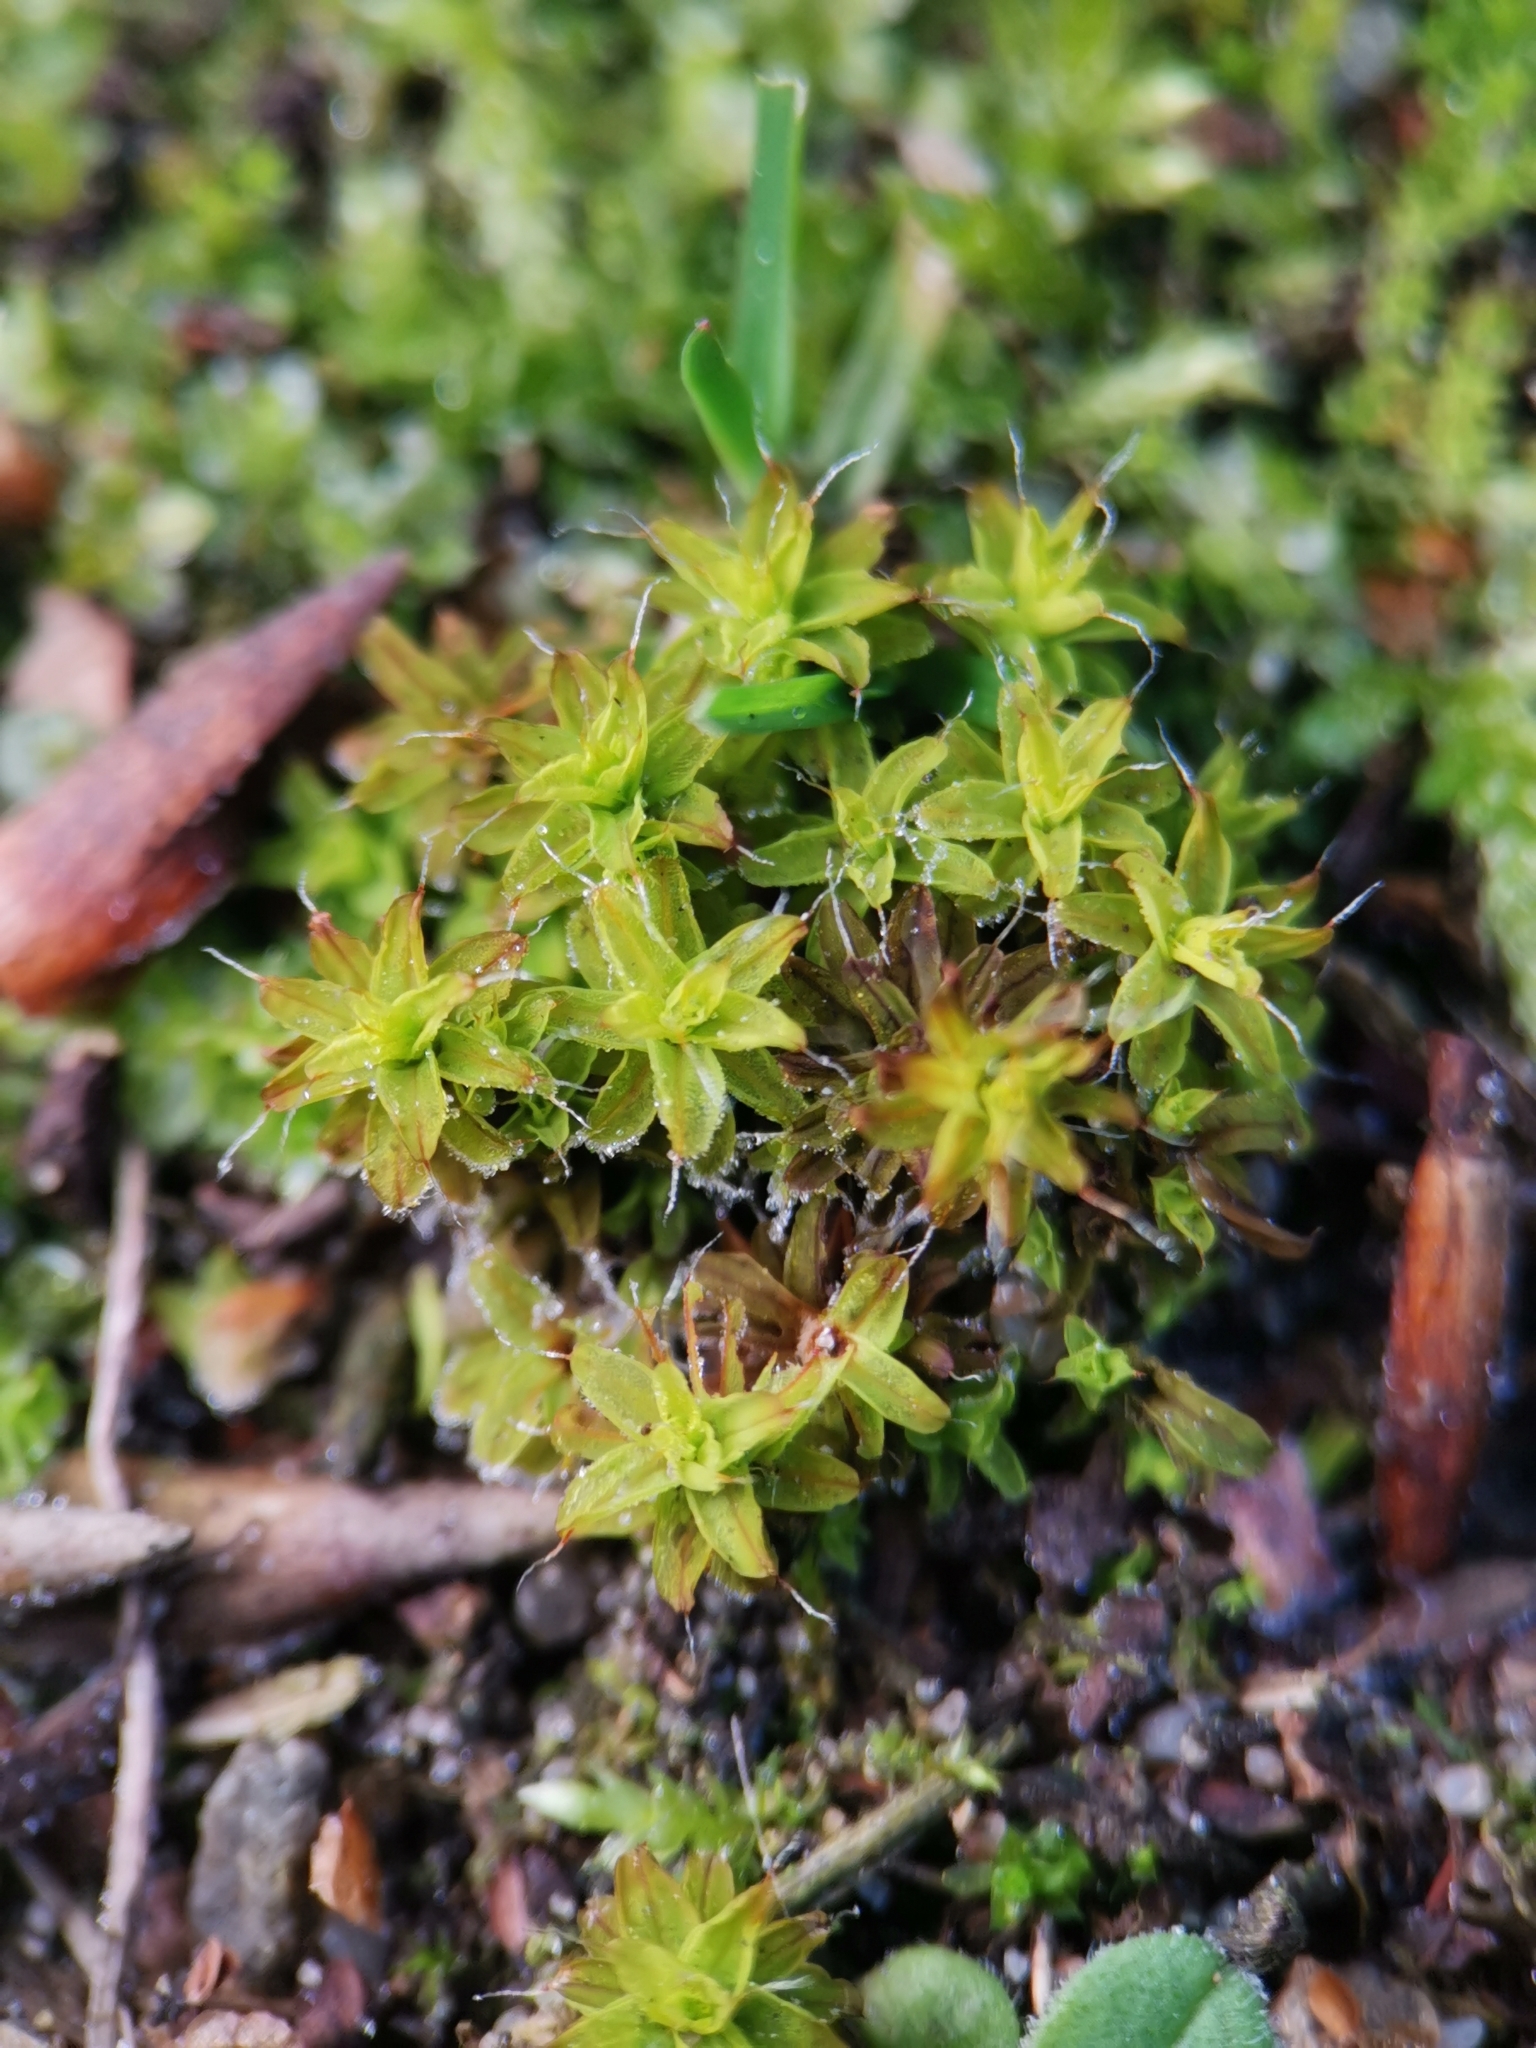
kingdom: Plantae
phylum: Bryophyta
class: Bryopsida
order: Pottiales
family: Pottiaceae
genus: Syntrichia
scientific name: Syntrichia ruralis
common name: Sidewalk screw moss
